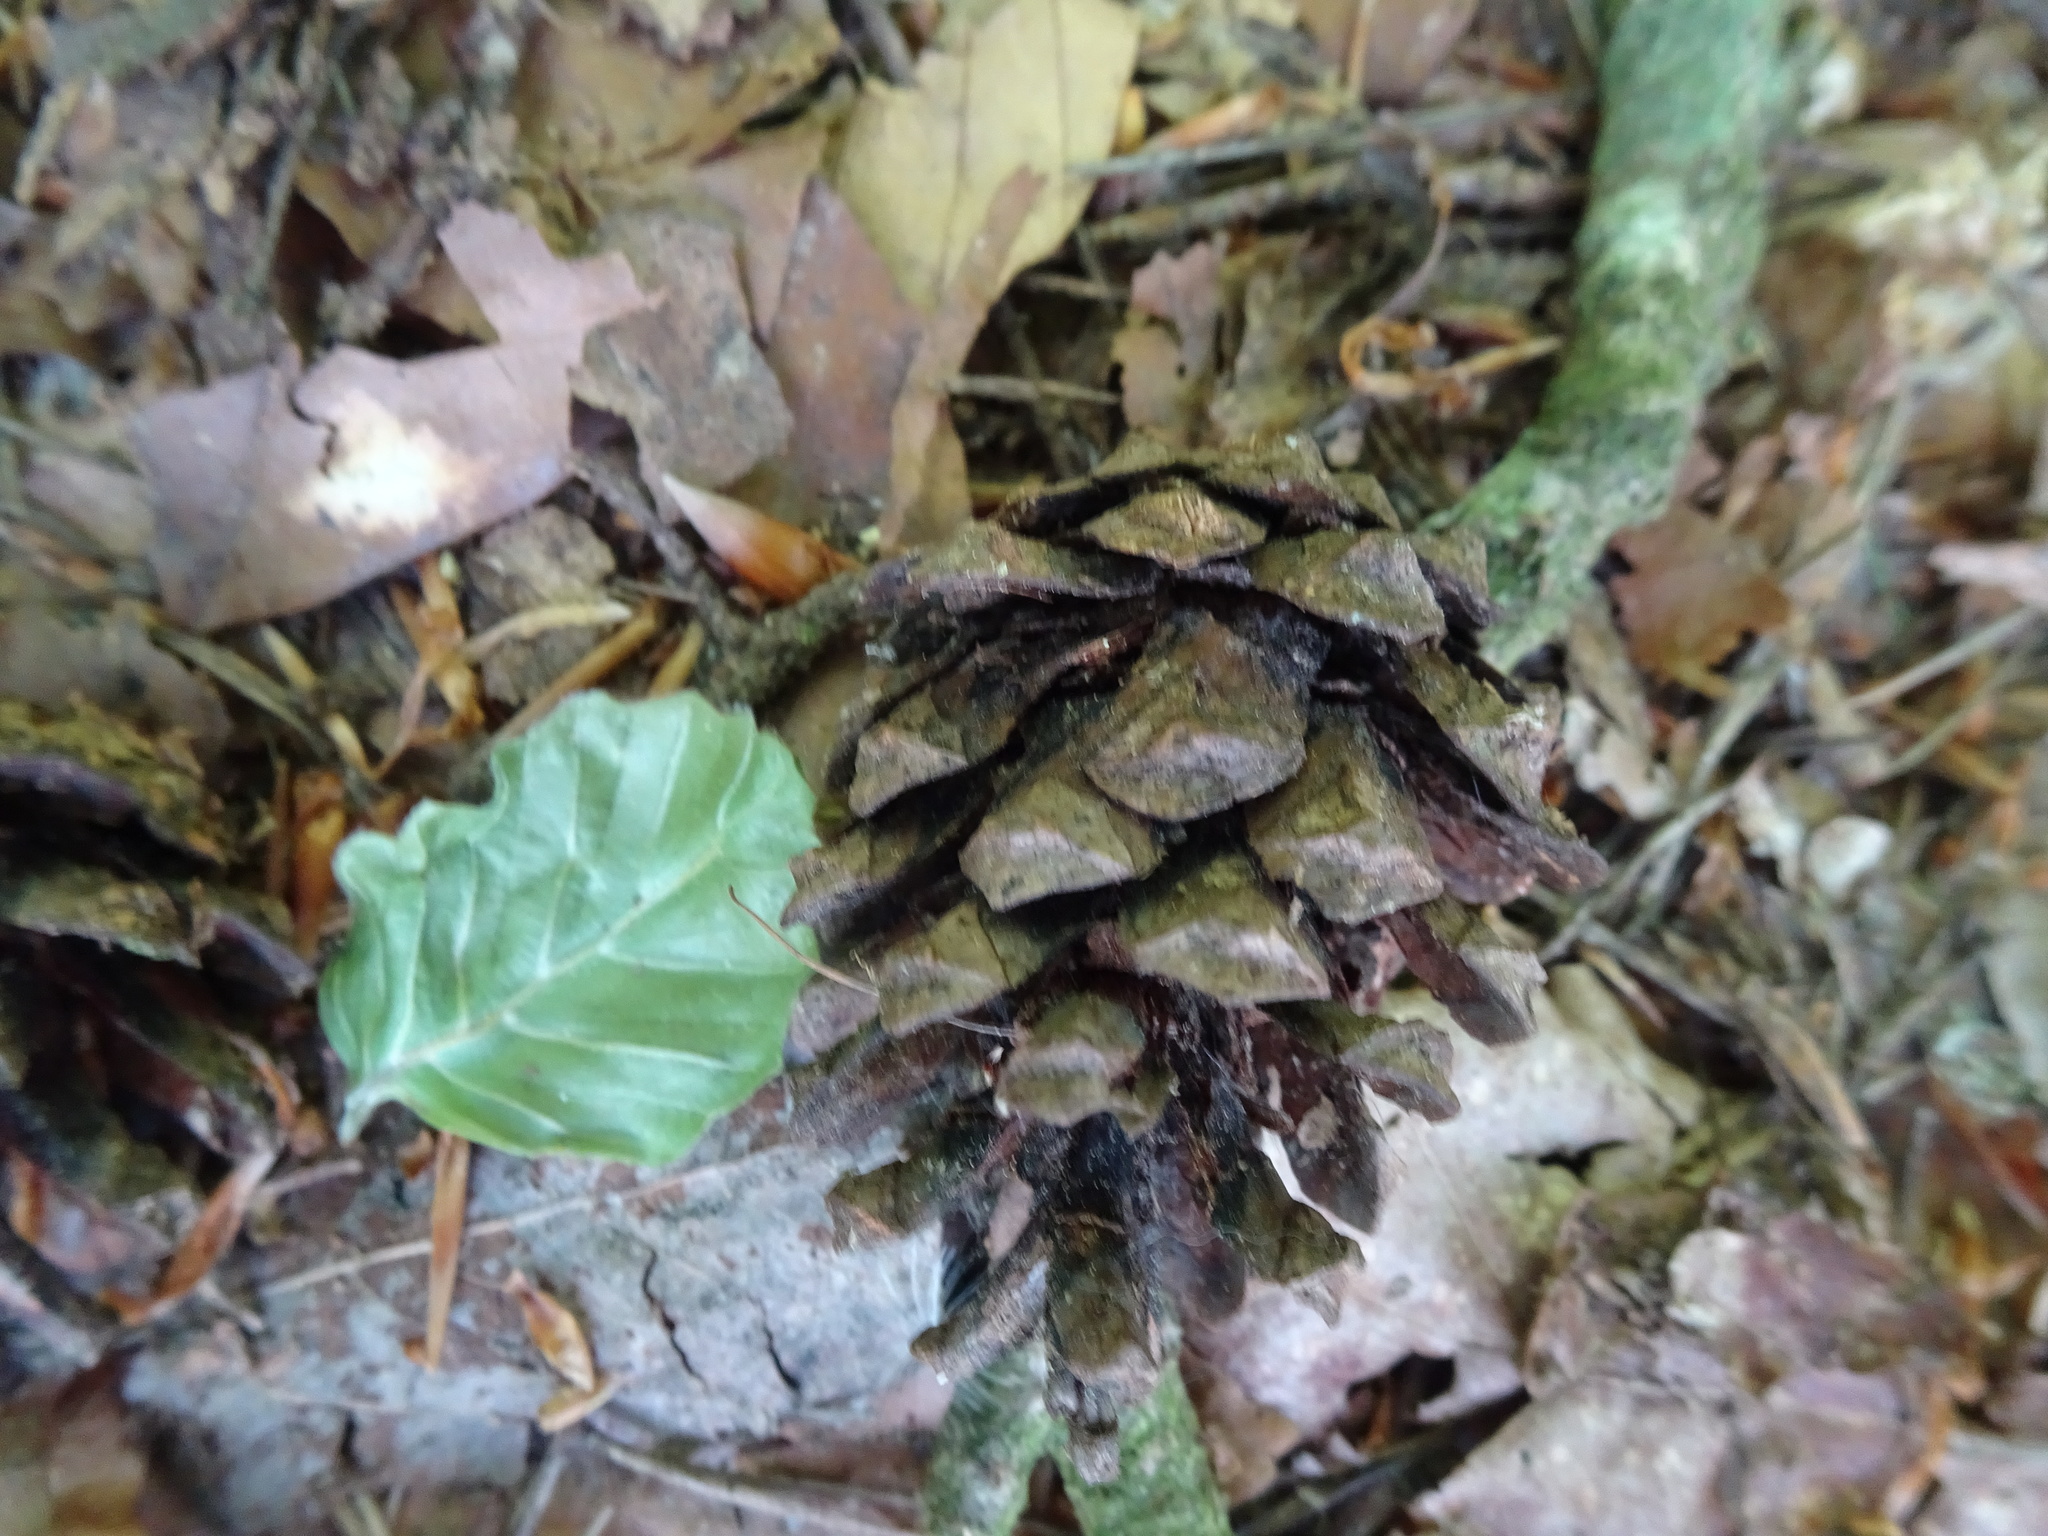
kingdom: Plantae
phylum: Tracheophyta
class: Pinopsida
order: Pinales
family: Pinaceae
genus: Pinus
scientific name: Pinus sylvestris
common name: Scots pine
